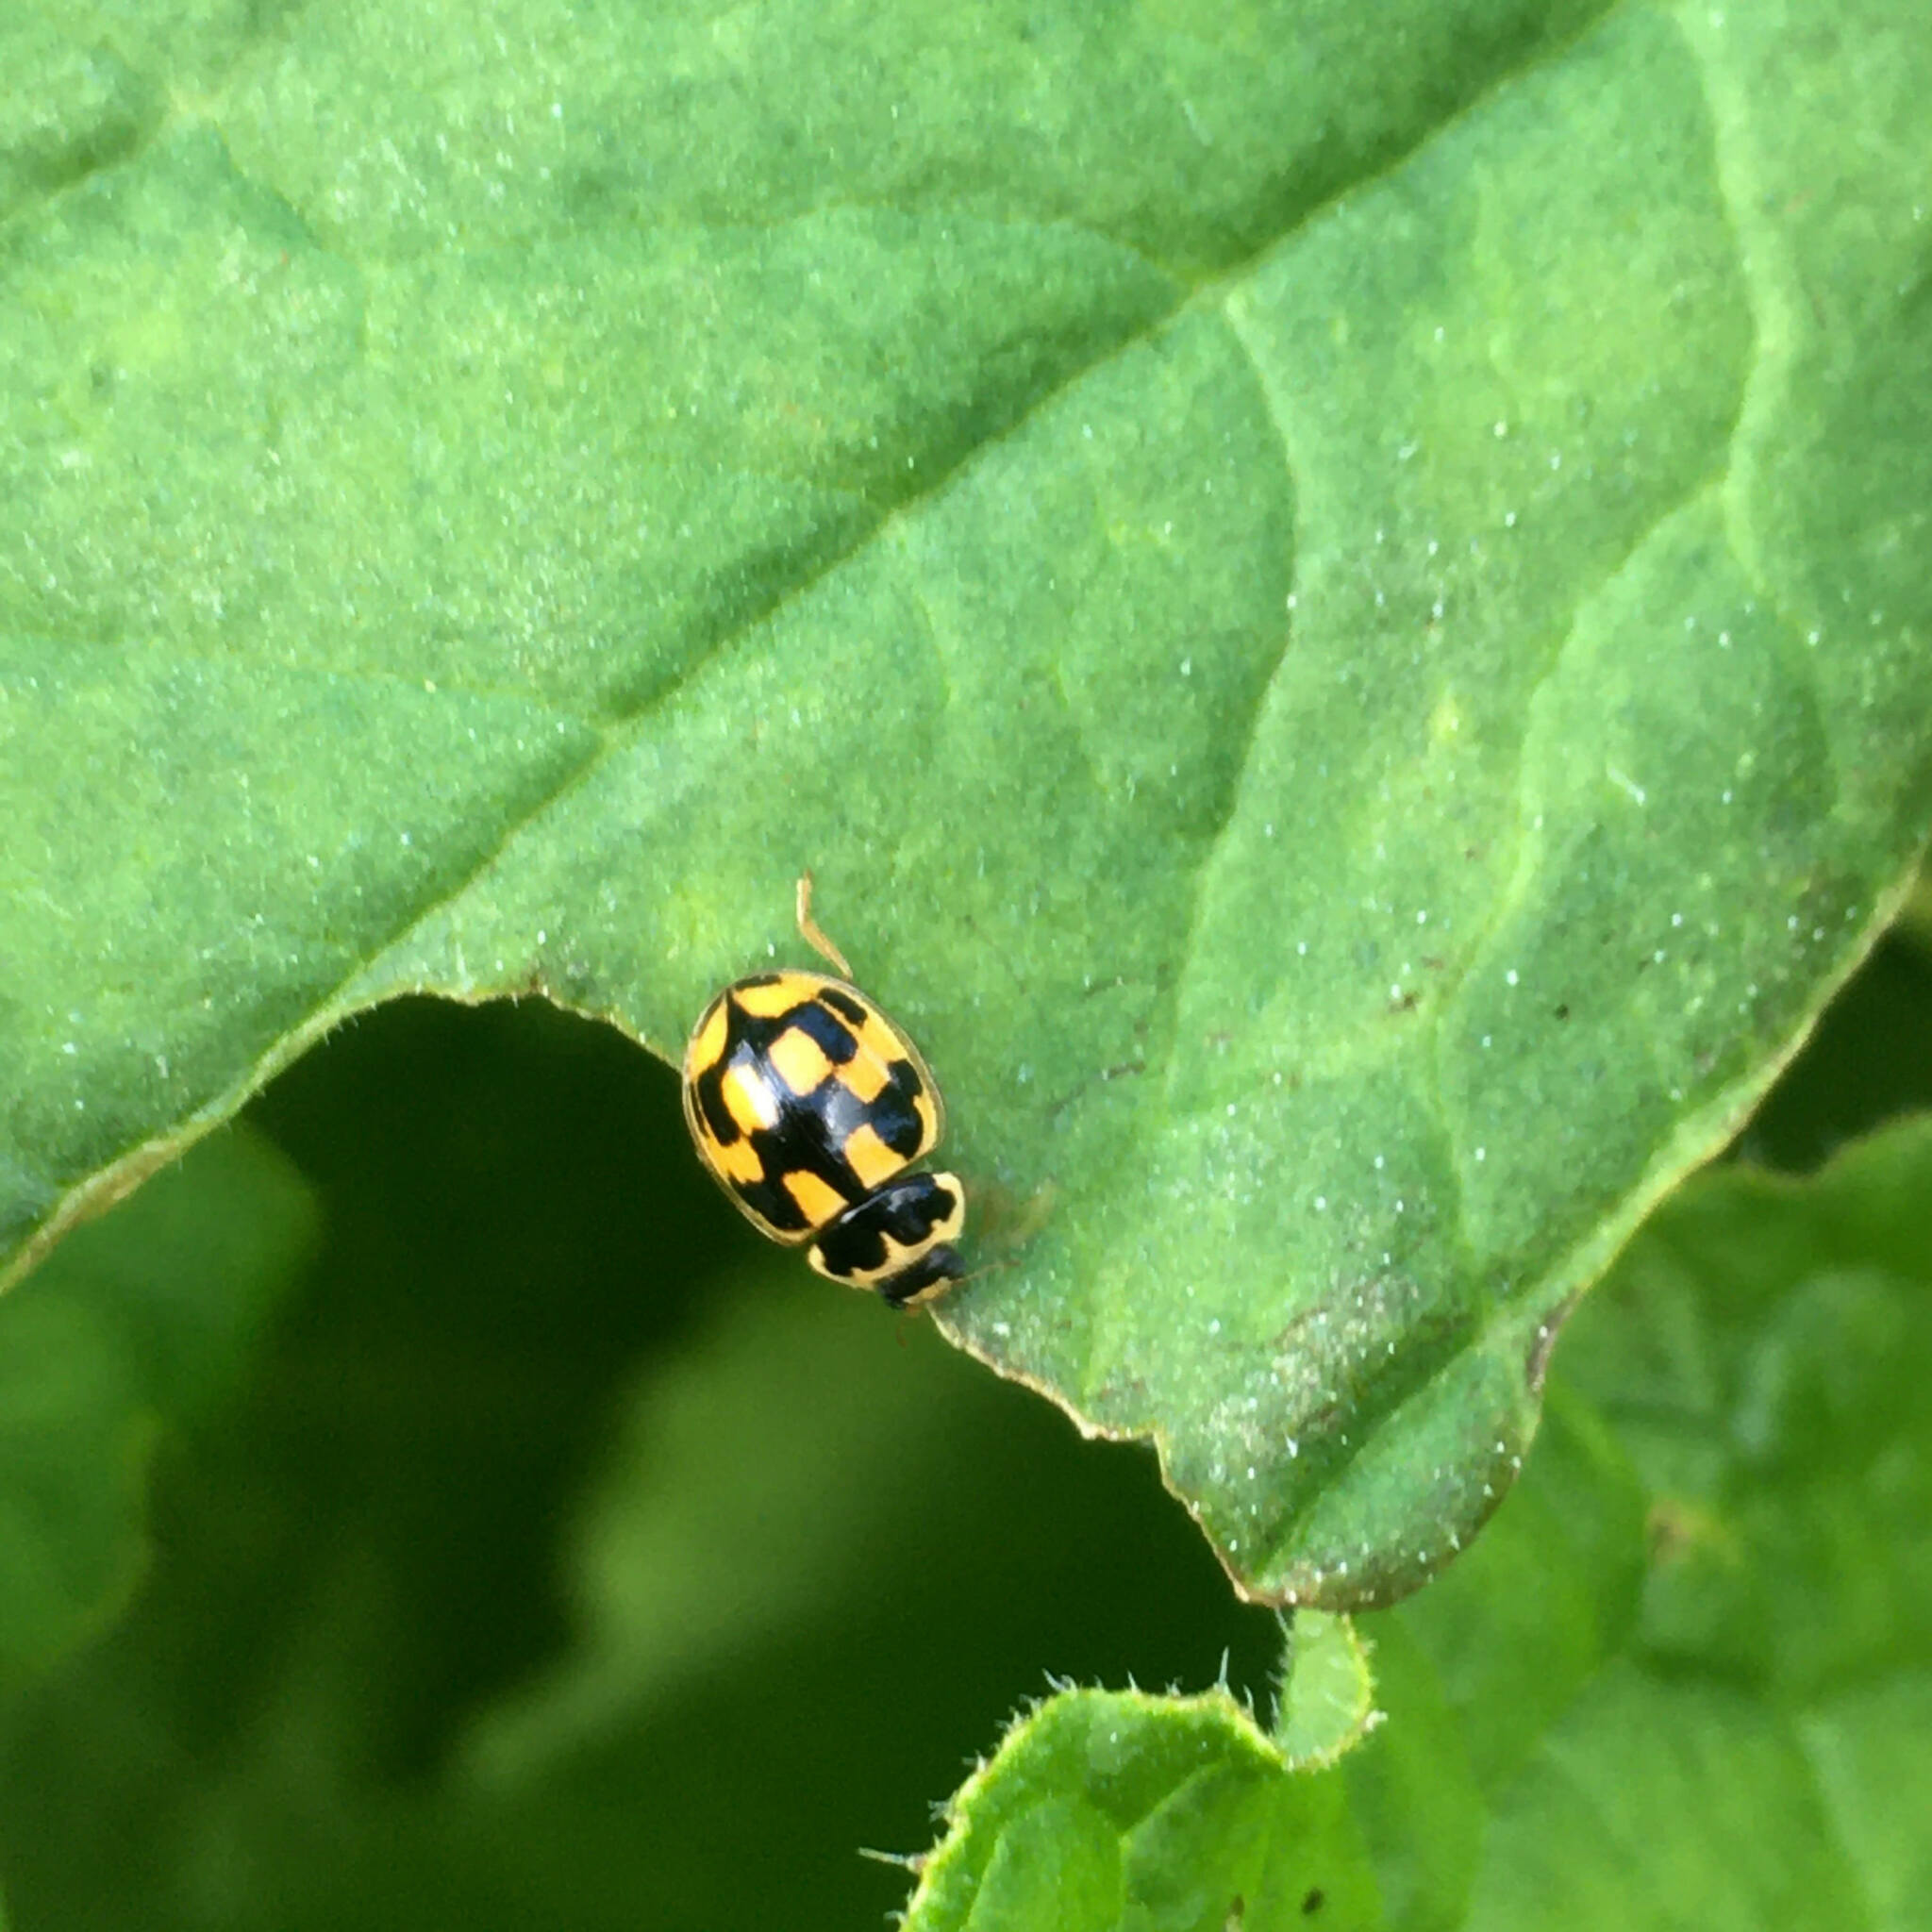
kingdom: Animalia
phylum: Arthropoda
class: Insecta
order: Coleoptera
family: Coccinellidae
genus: Propylaea
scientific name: Propylaea quatuordecimpunctata
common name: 14-spotted ladybird beetle
